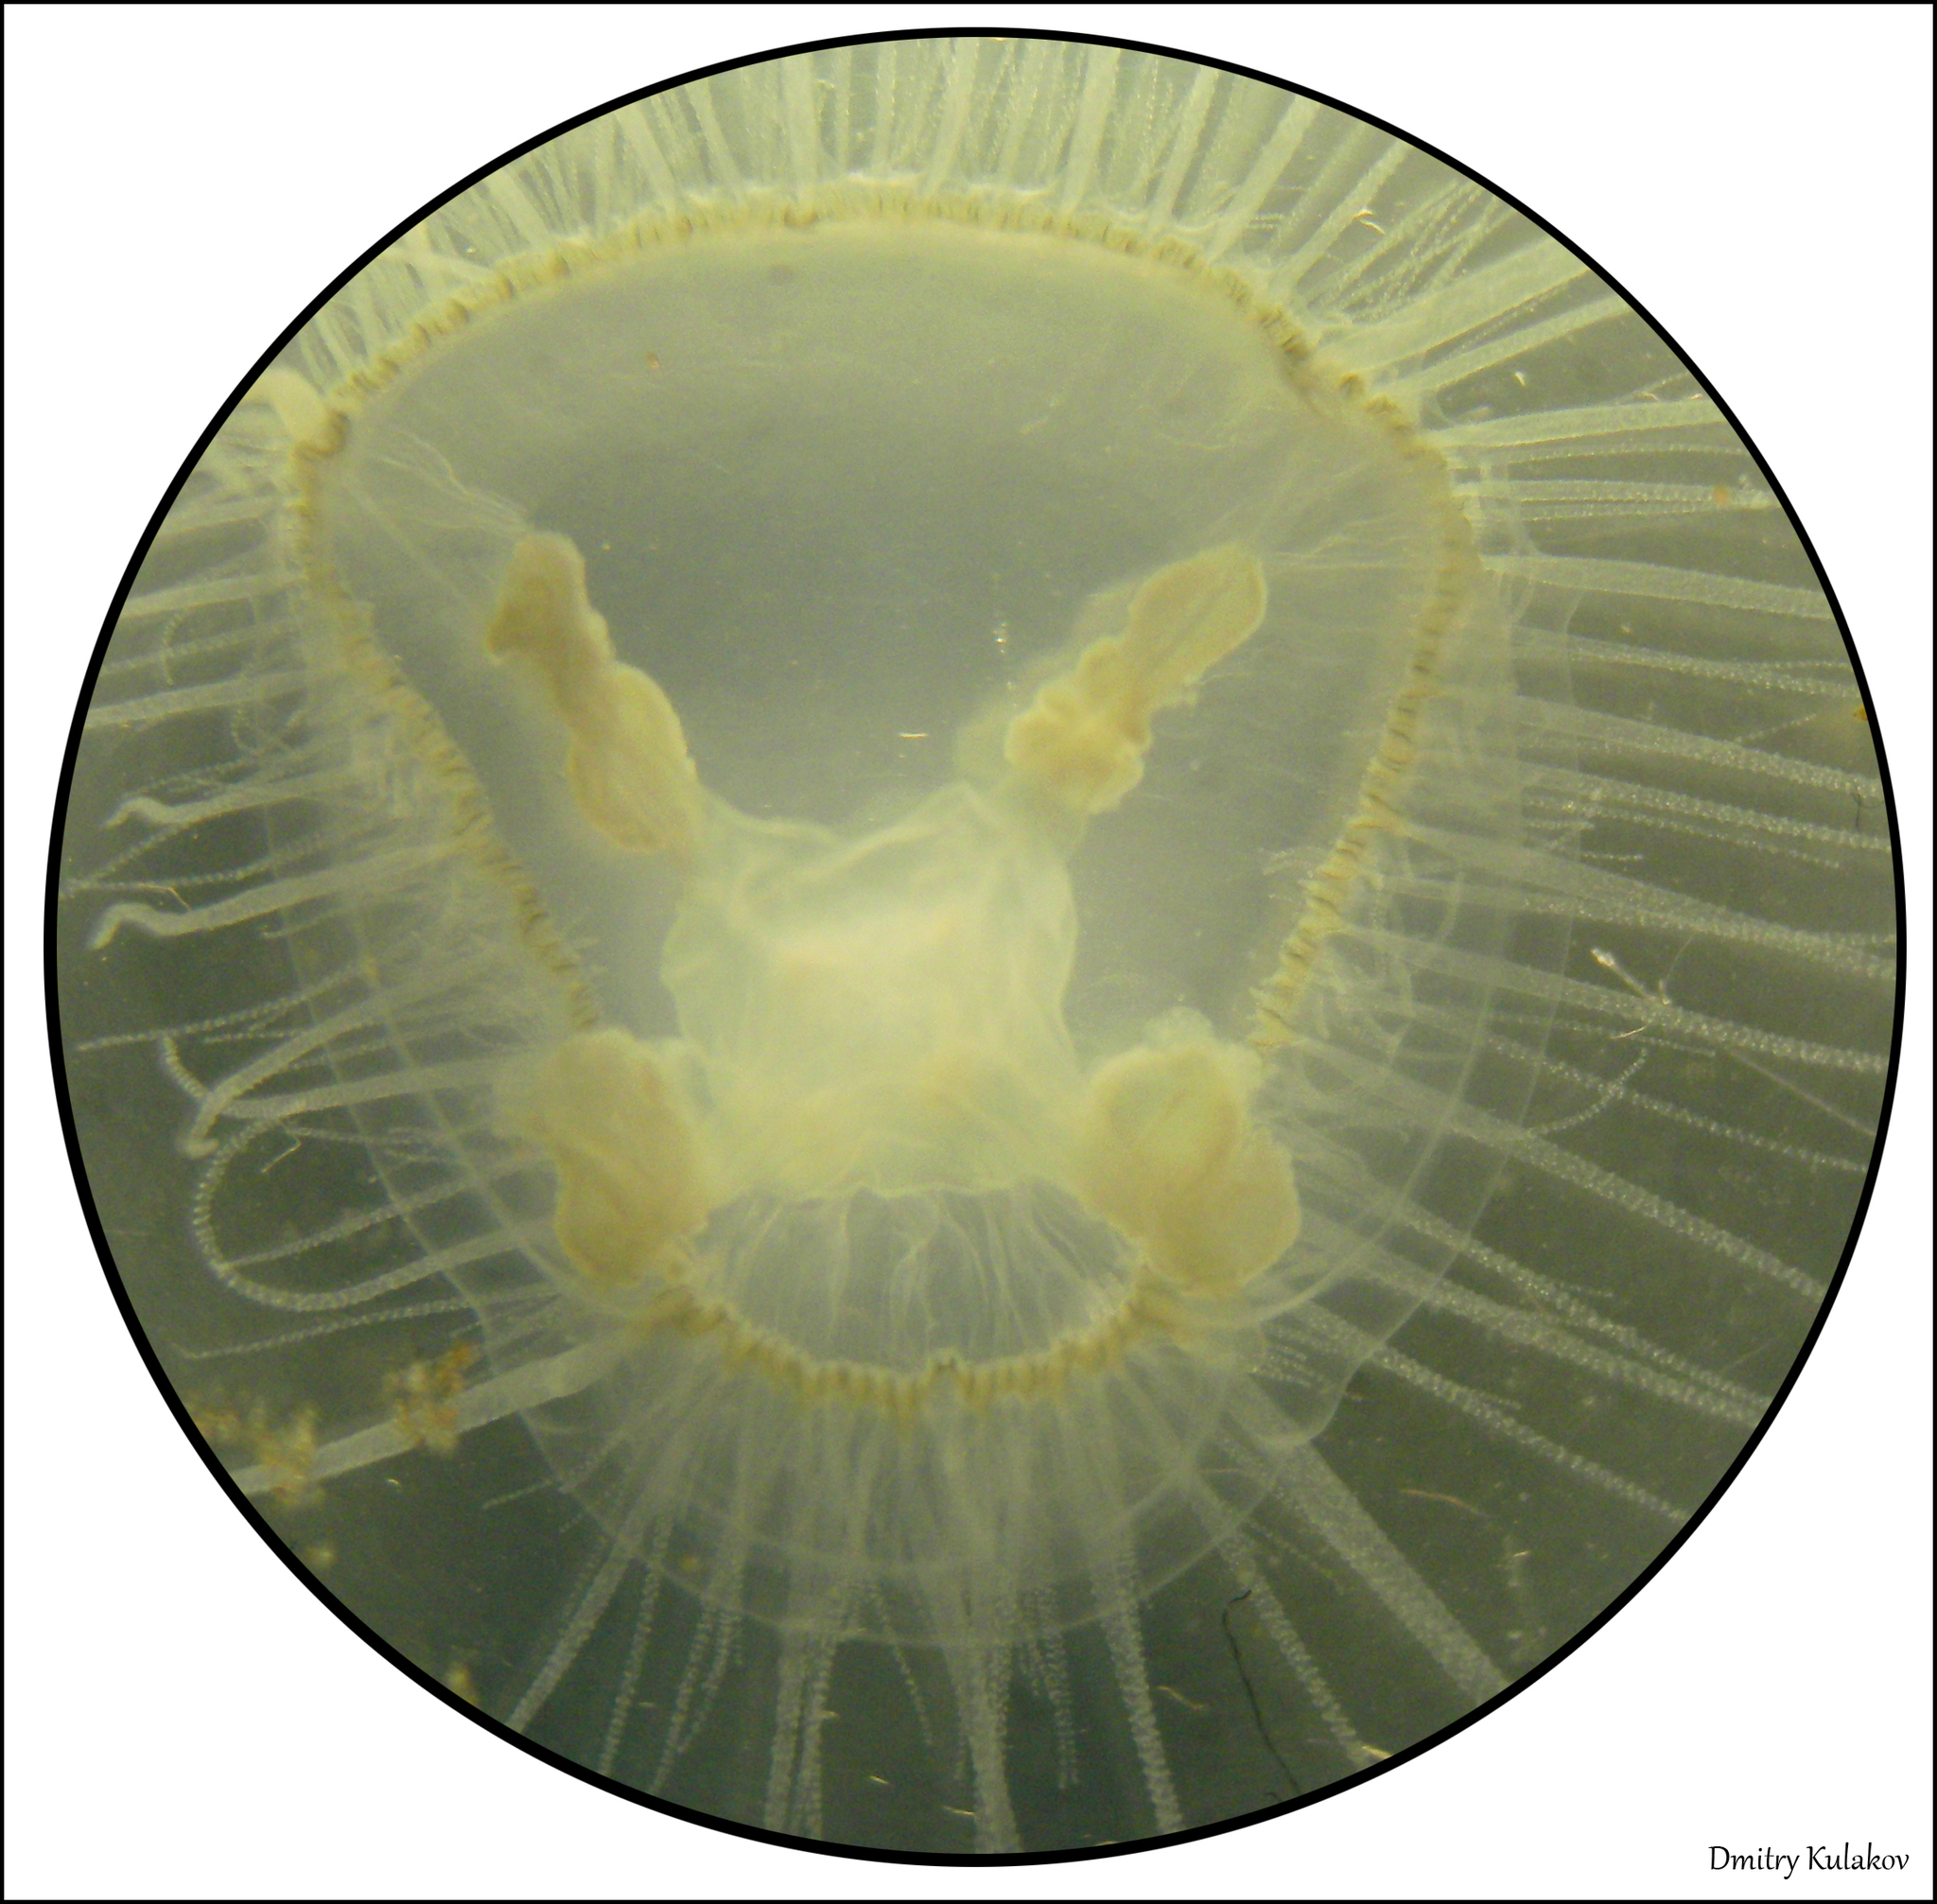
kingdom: Animalia
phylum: Cnidaria
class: Hydrozoa
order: Limnomedusae
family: Olindiidae
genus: Craspedacusta
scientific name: Craspedacusta sowerbii
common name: Freshwater jellyfish
